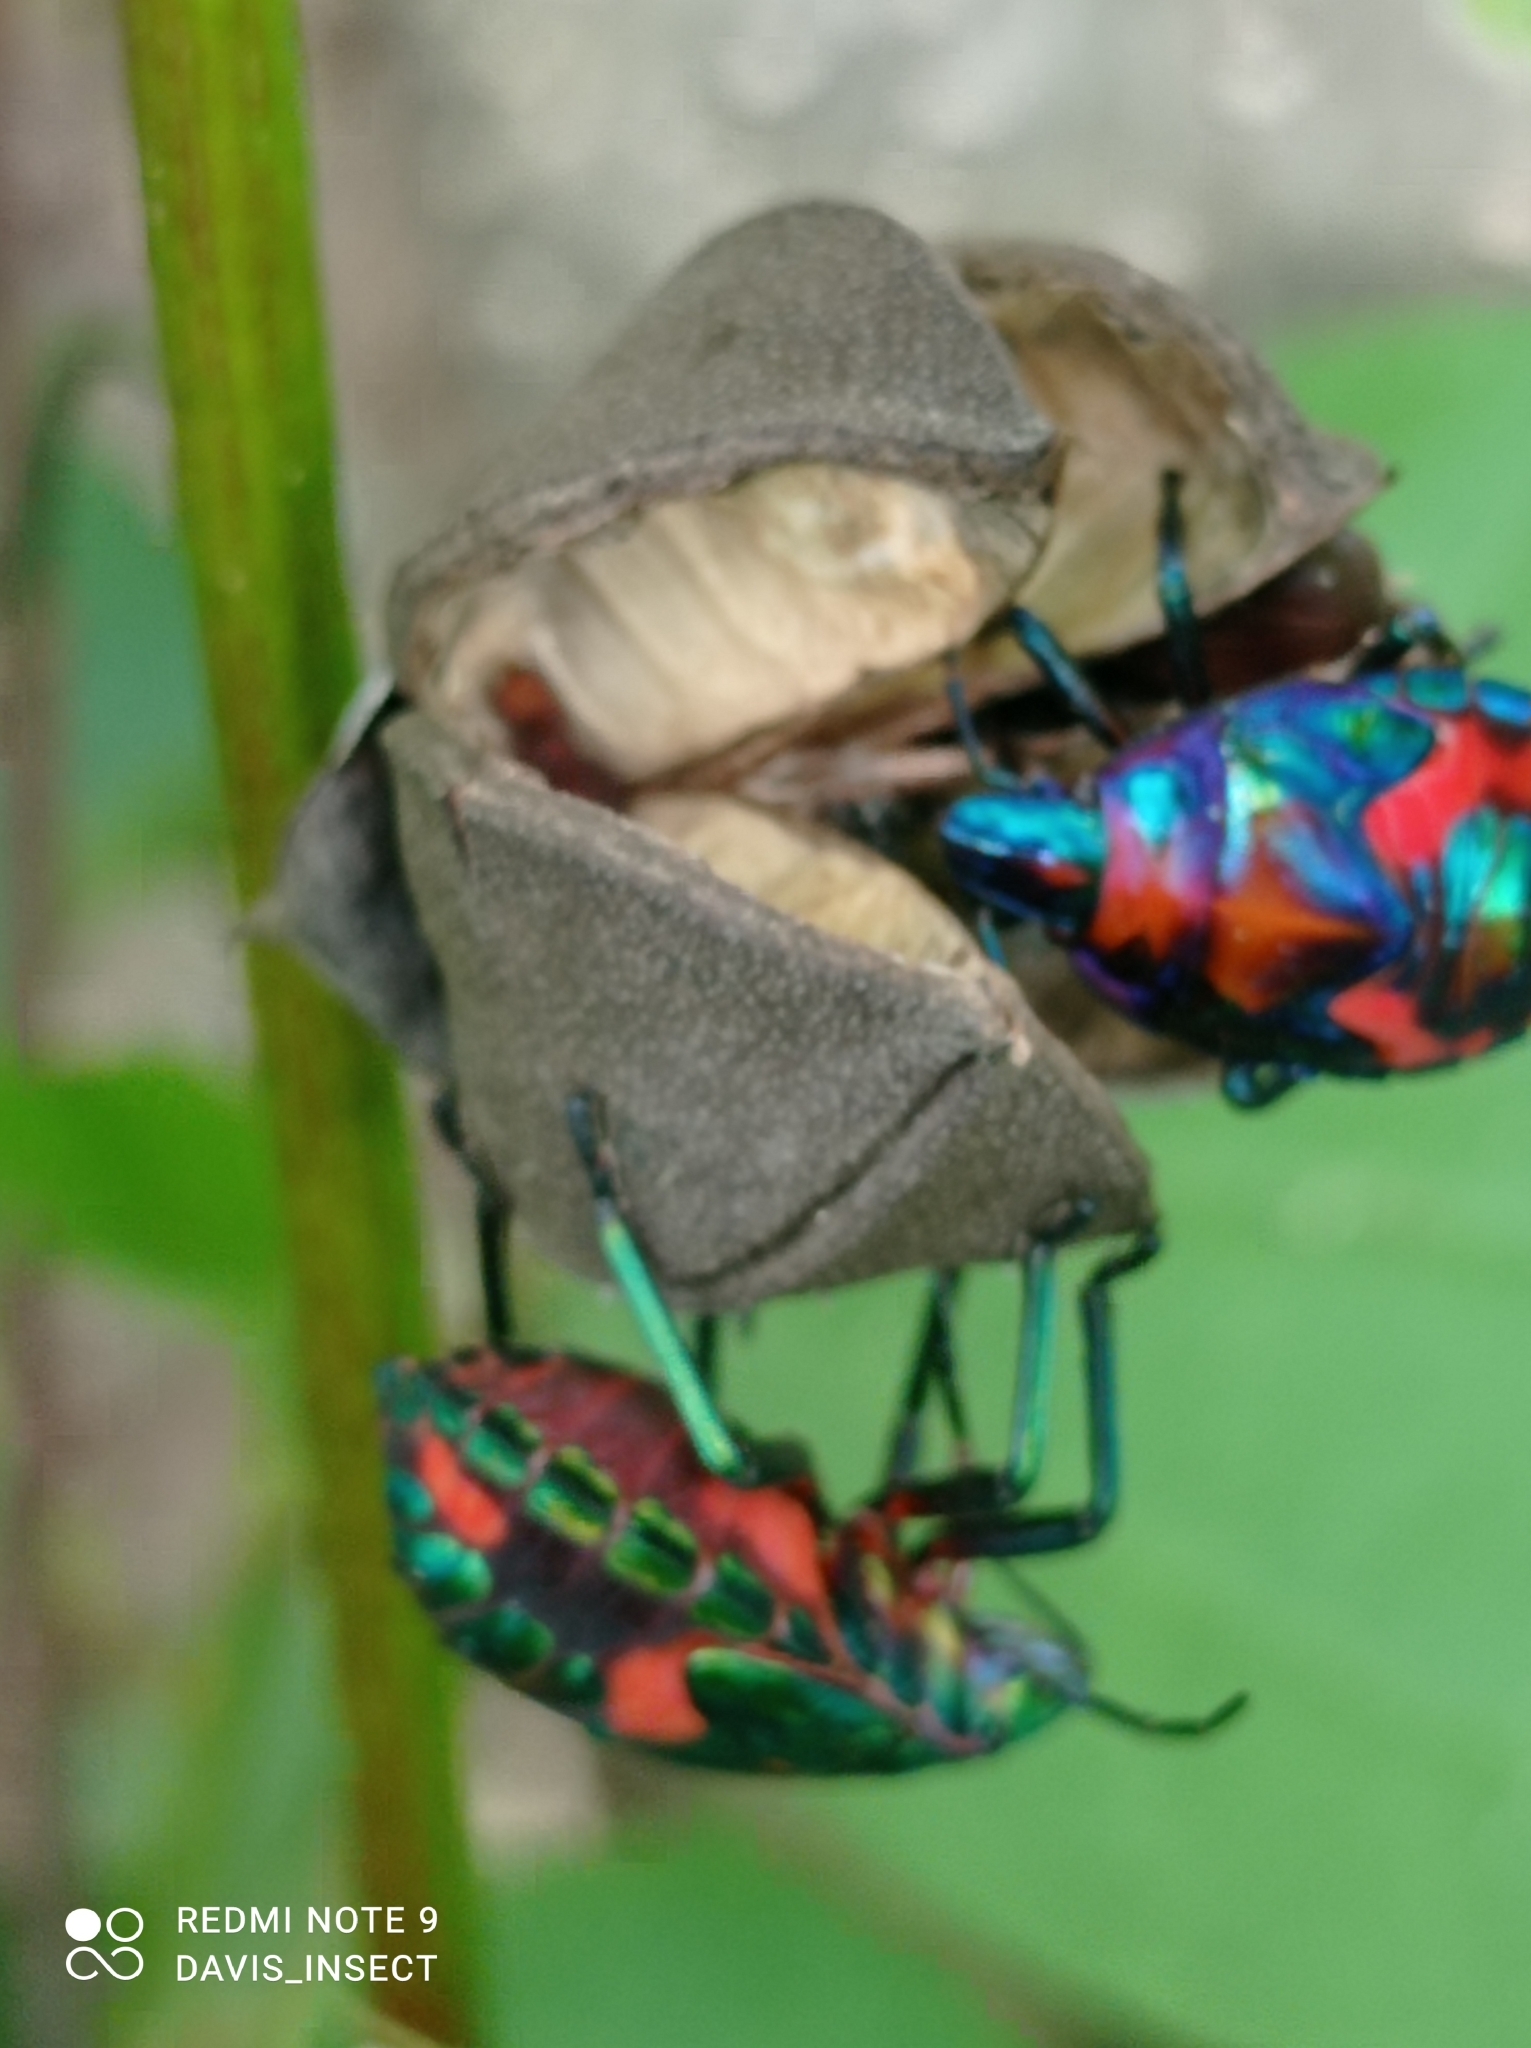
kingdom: Animalia
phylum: Arthropoda
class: Insecta
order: Hemiptera
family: Scutelleridae
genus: Tectocoris
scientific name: Tectocoris diophthalmus
